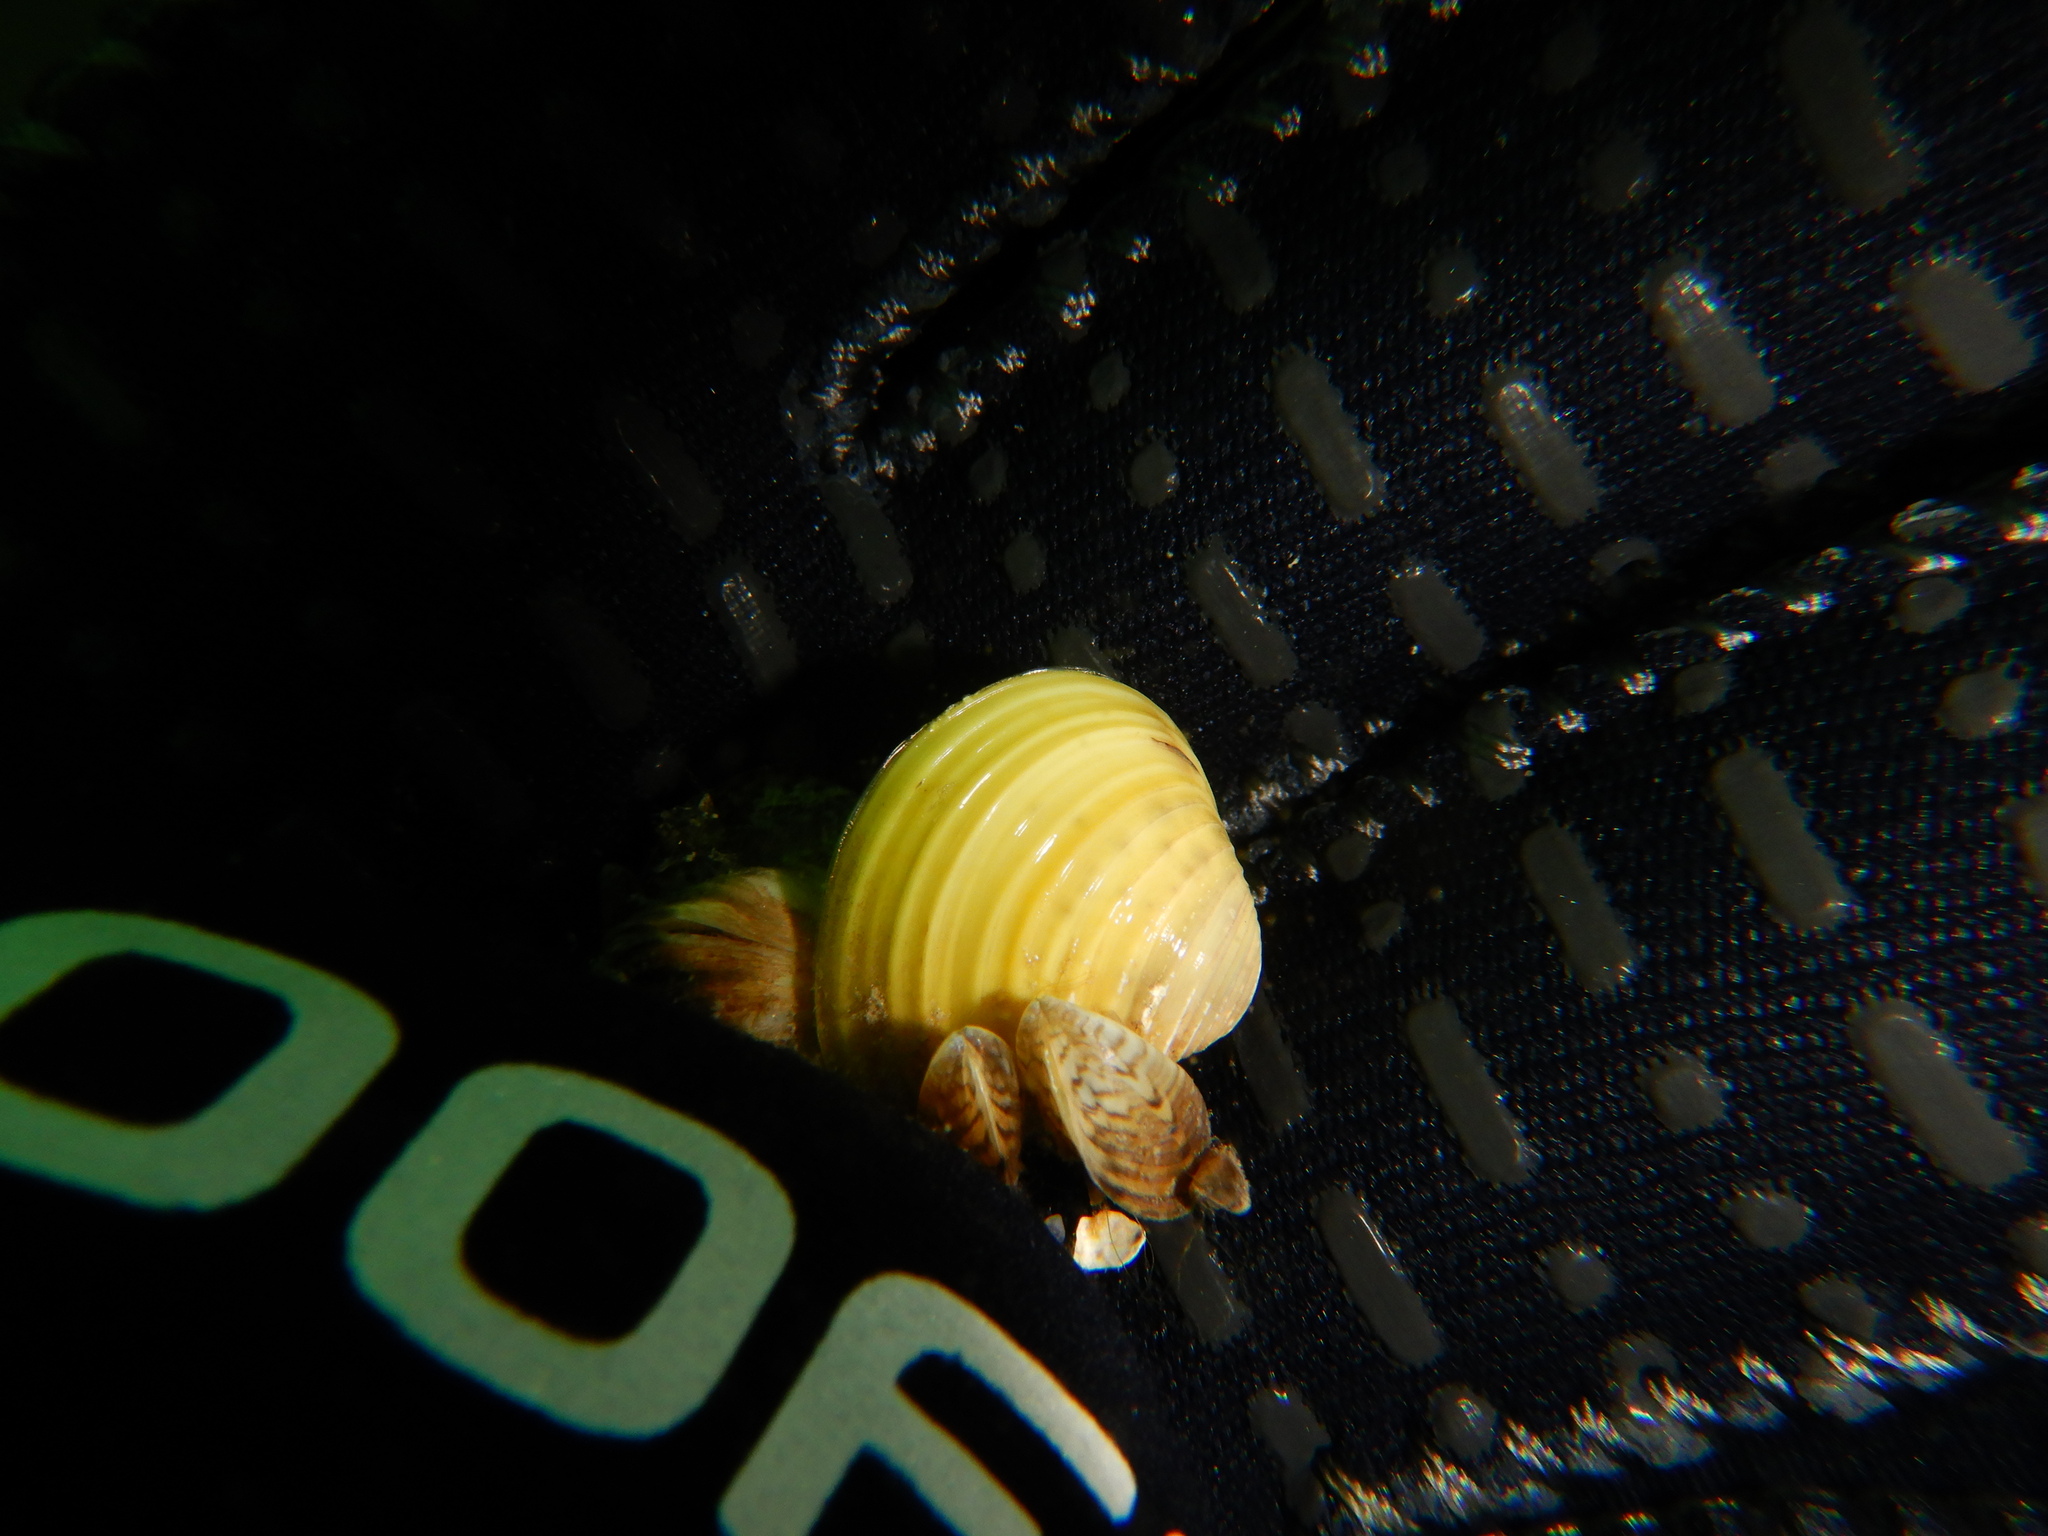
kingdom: Animalia
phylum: Mollusca
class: Bivalvia
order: Venerida
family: Cyrenidae
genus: Corbicula
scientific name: Corbicula fluminea
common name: Asian clam
